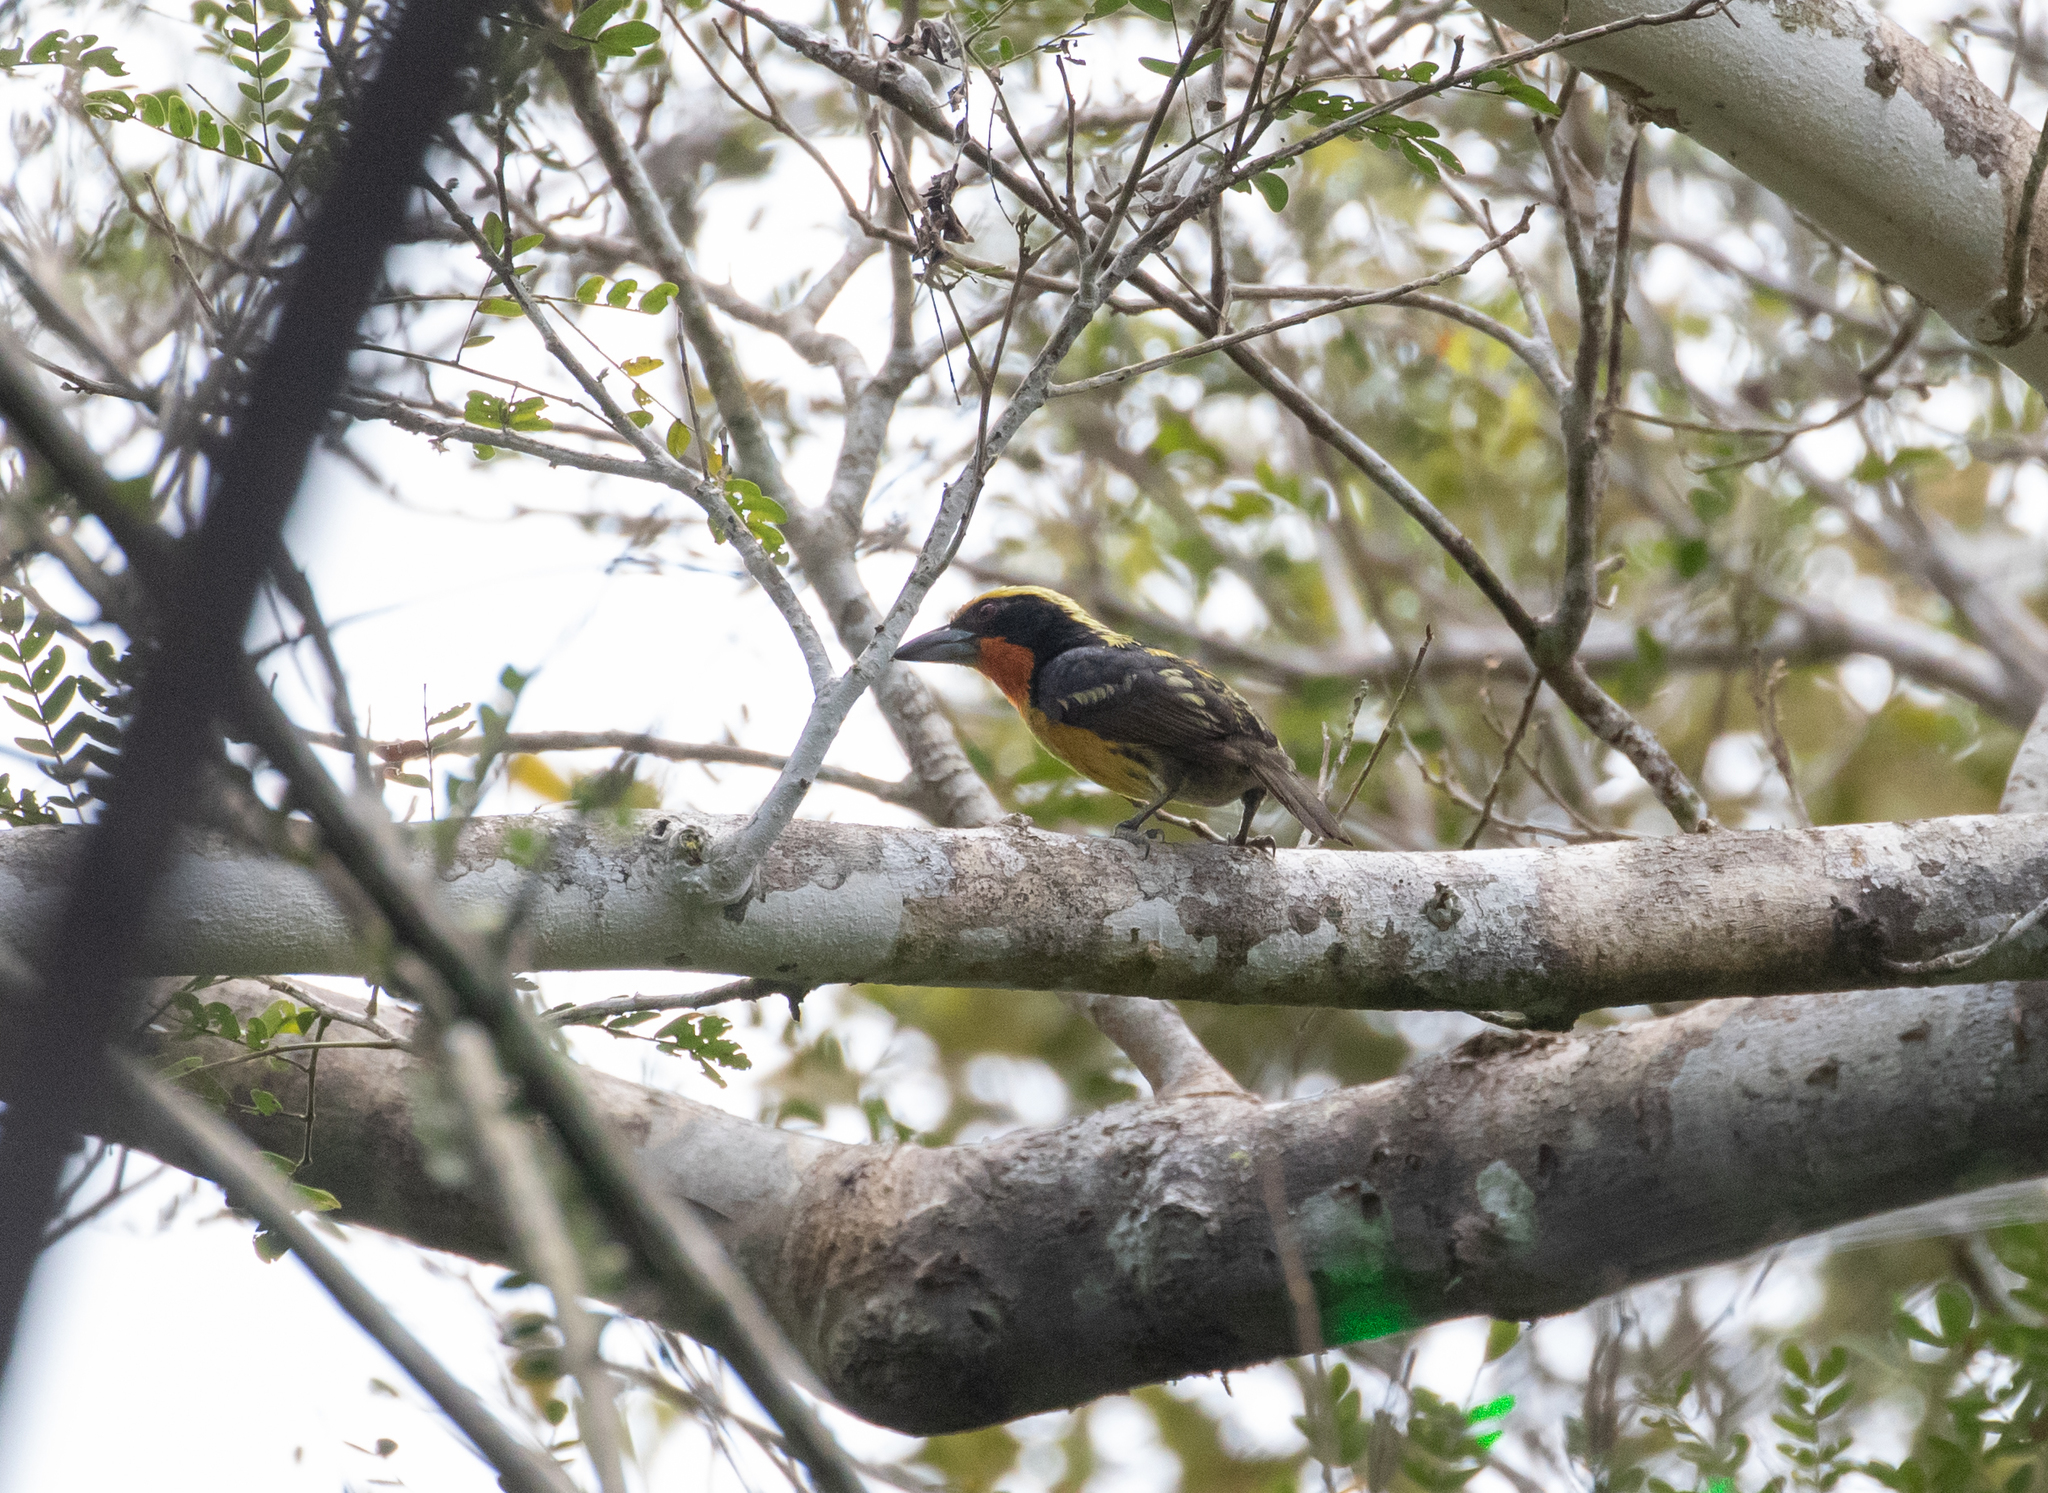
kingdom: Animalia
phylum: Chordata
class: Aves
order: Piciformes
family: Capitonidae
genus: Capito
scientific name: Capito auratus
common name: Gilded barbet
